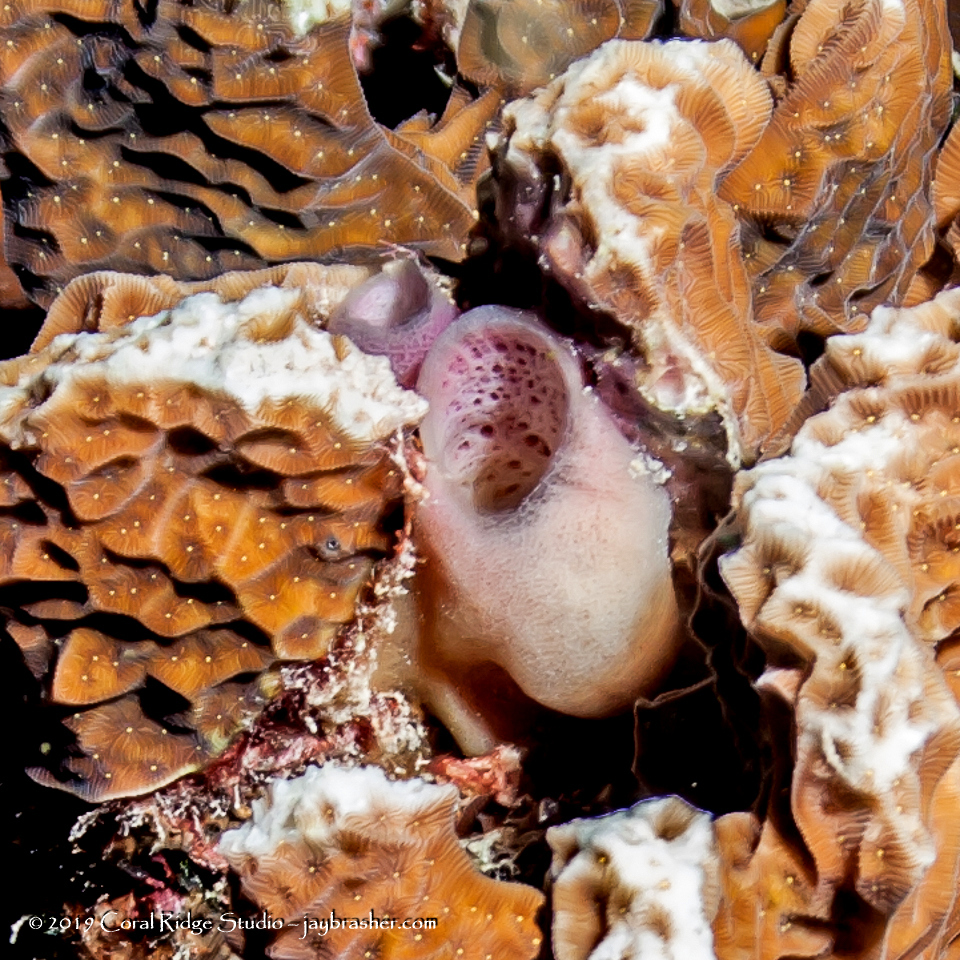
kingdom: Animalia
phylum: Porifera
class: Demospongiae
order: Haplosclerida
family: Callyspongiidae
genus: Callyspongia
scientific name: Callyspongia fallax
